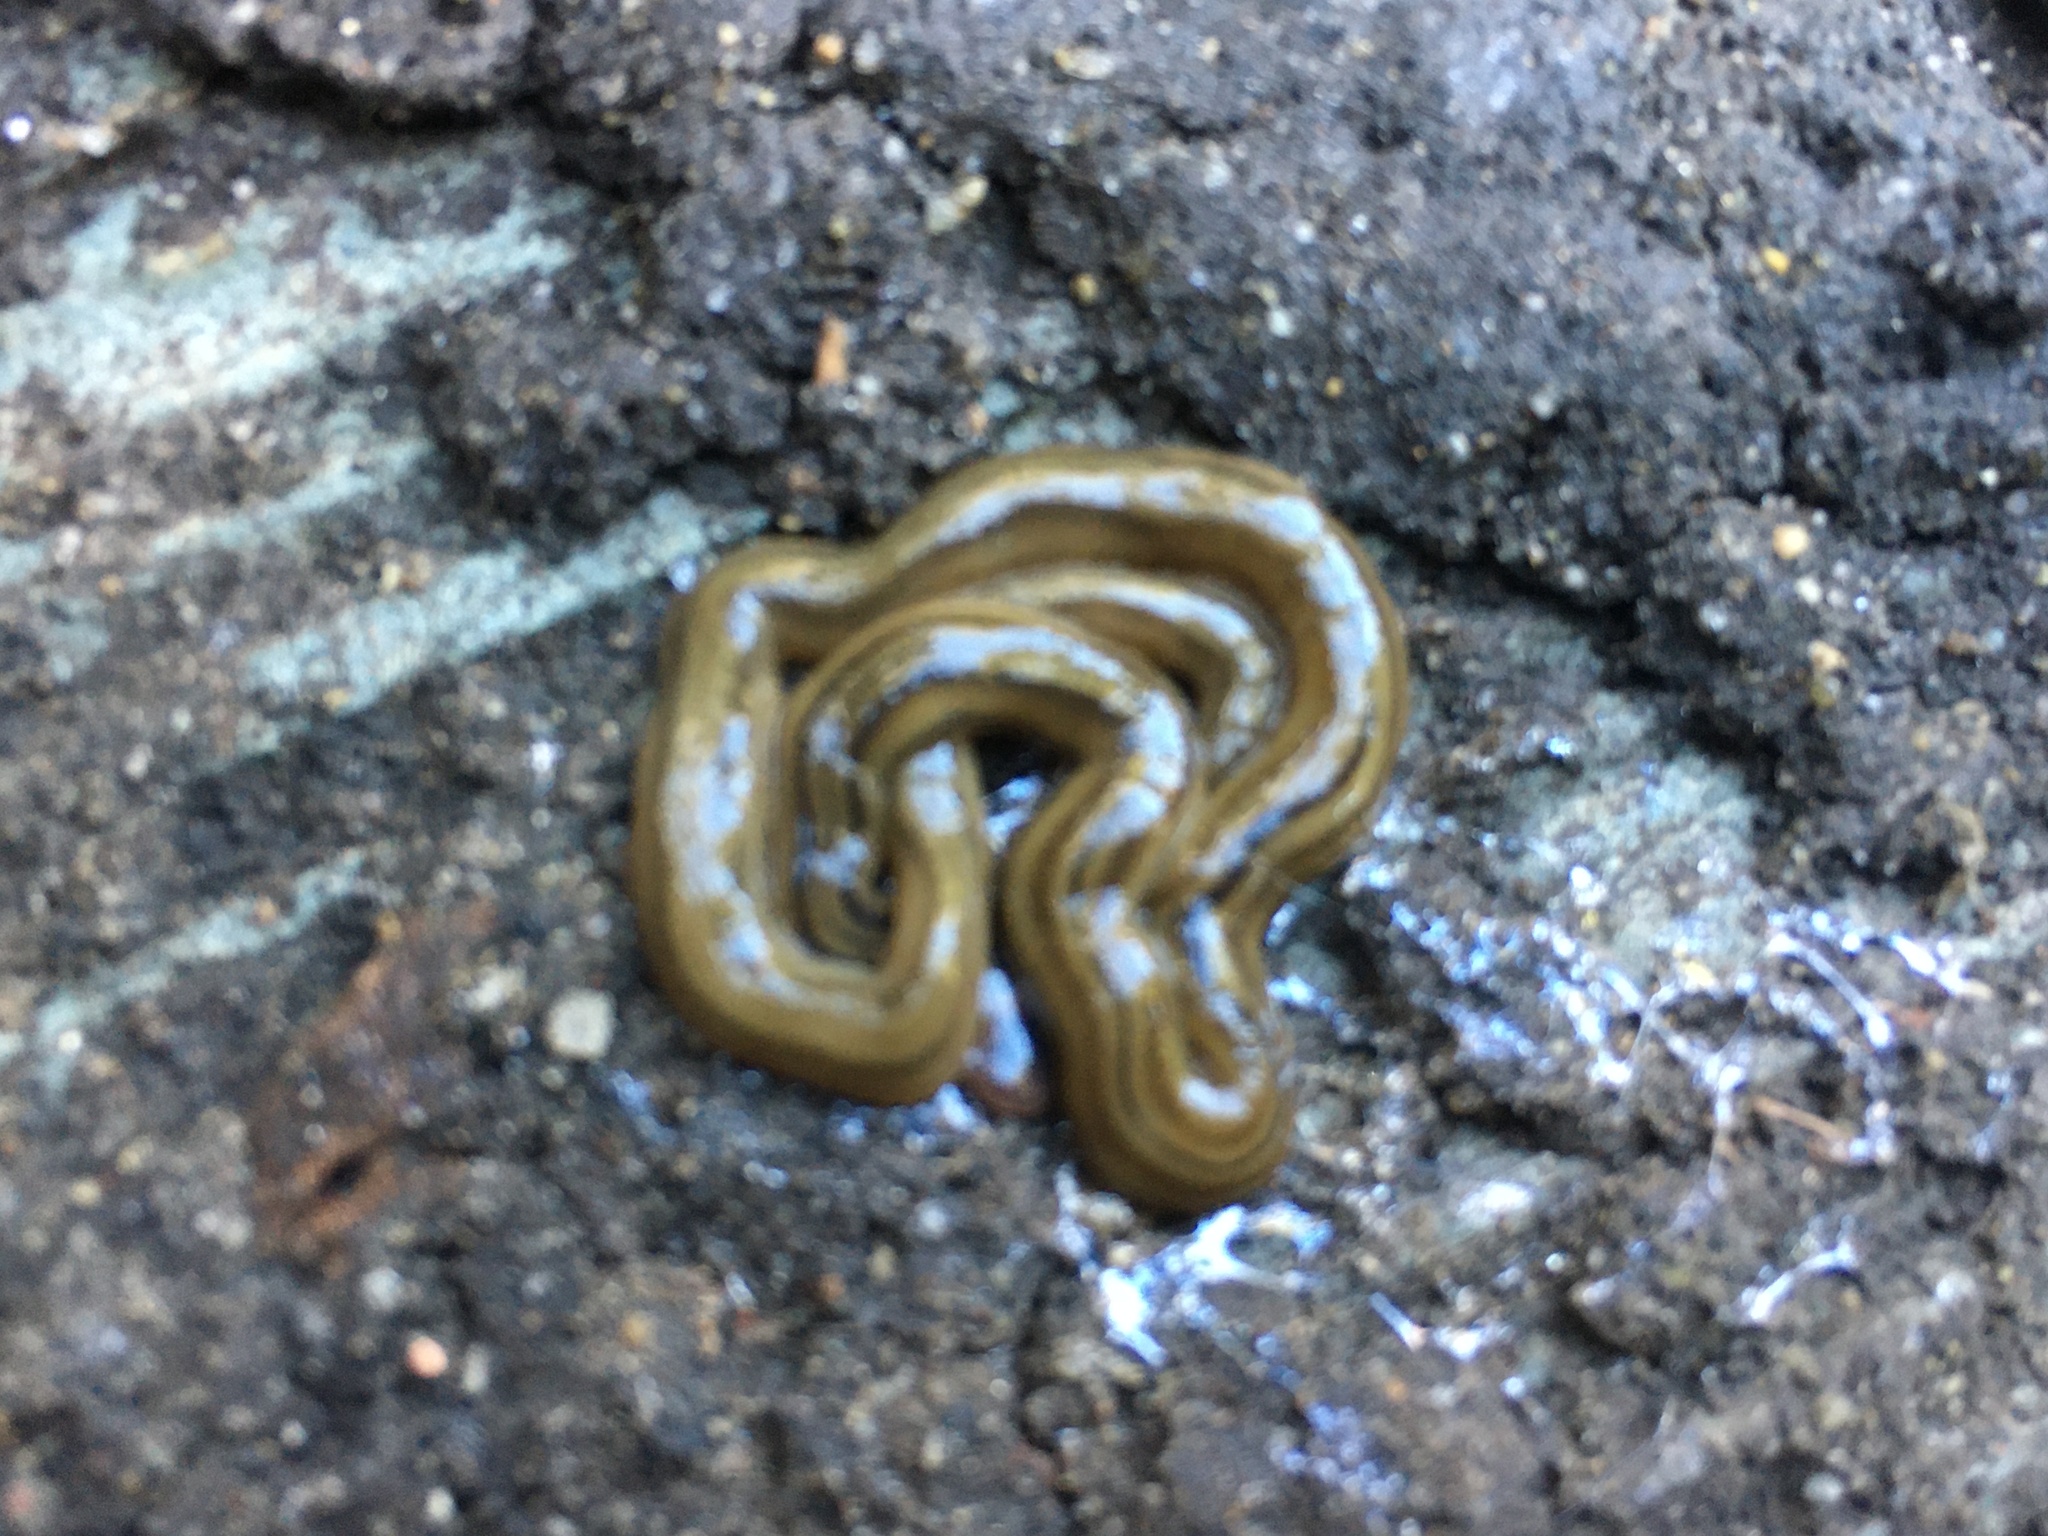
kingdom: Animalia
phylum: Platyhelminthes
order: Tricladida
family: Geoplanidae
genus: Bipalium
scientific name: Bipalium kewense
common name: Hammerhead flatworm
